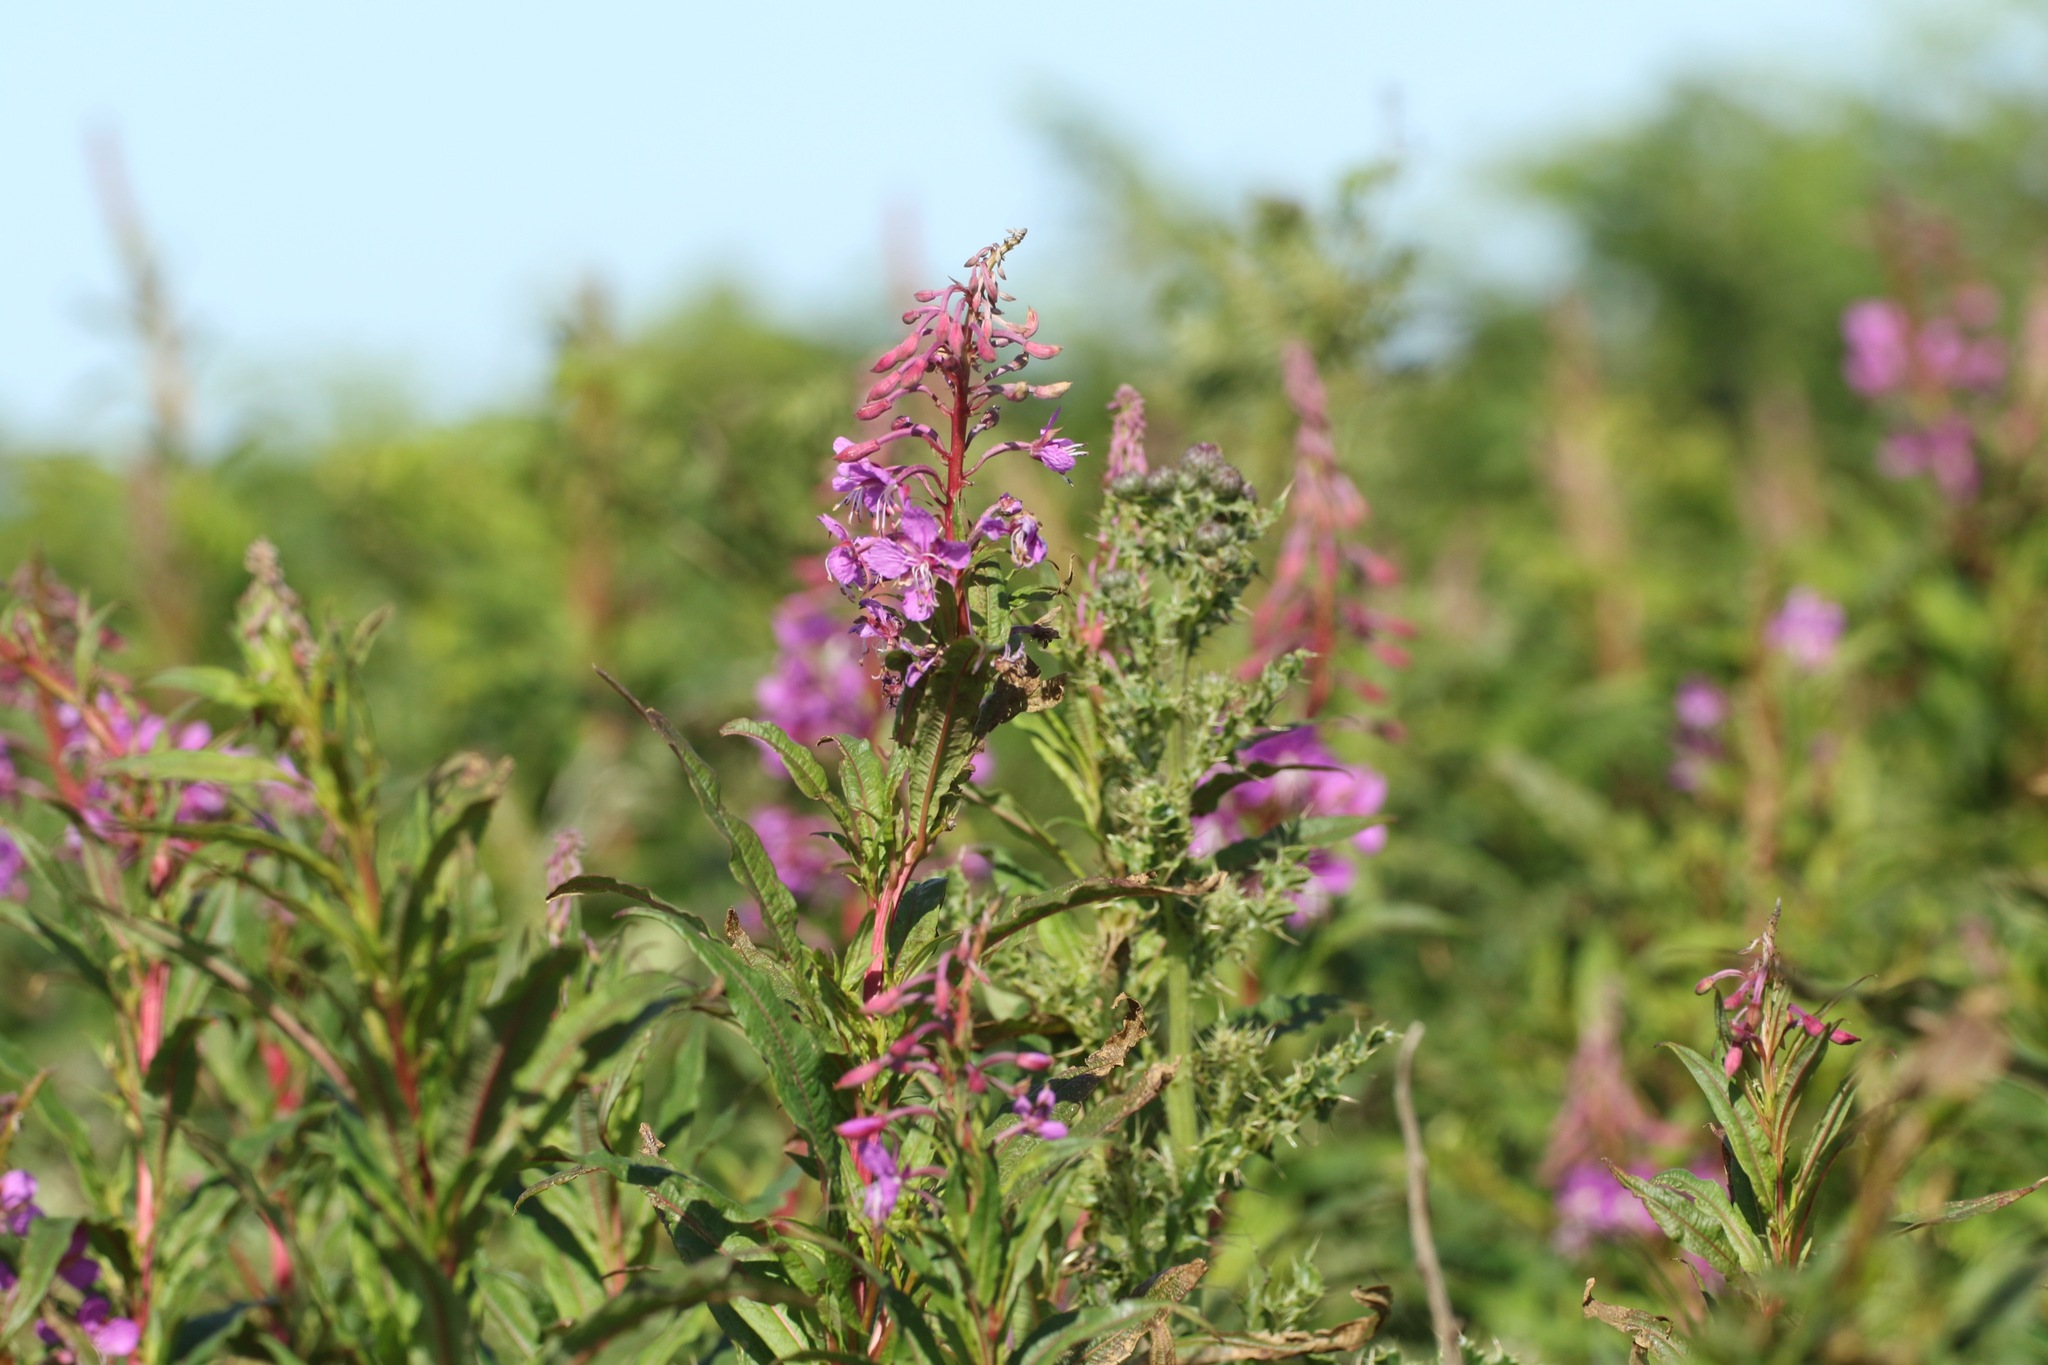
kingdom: Plantae
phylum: Tracheophyta
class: Magnoliopsida
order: Myrtales
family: Onagraceae
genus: Chamaenerion
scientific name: Chamaenerion angustifolium
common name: Fireweed
